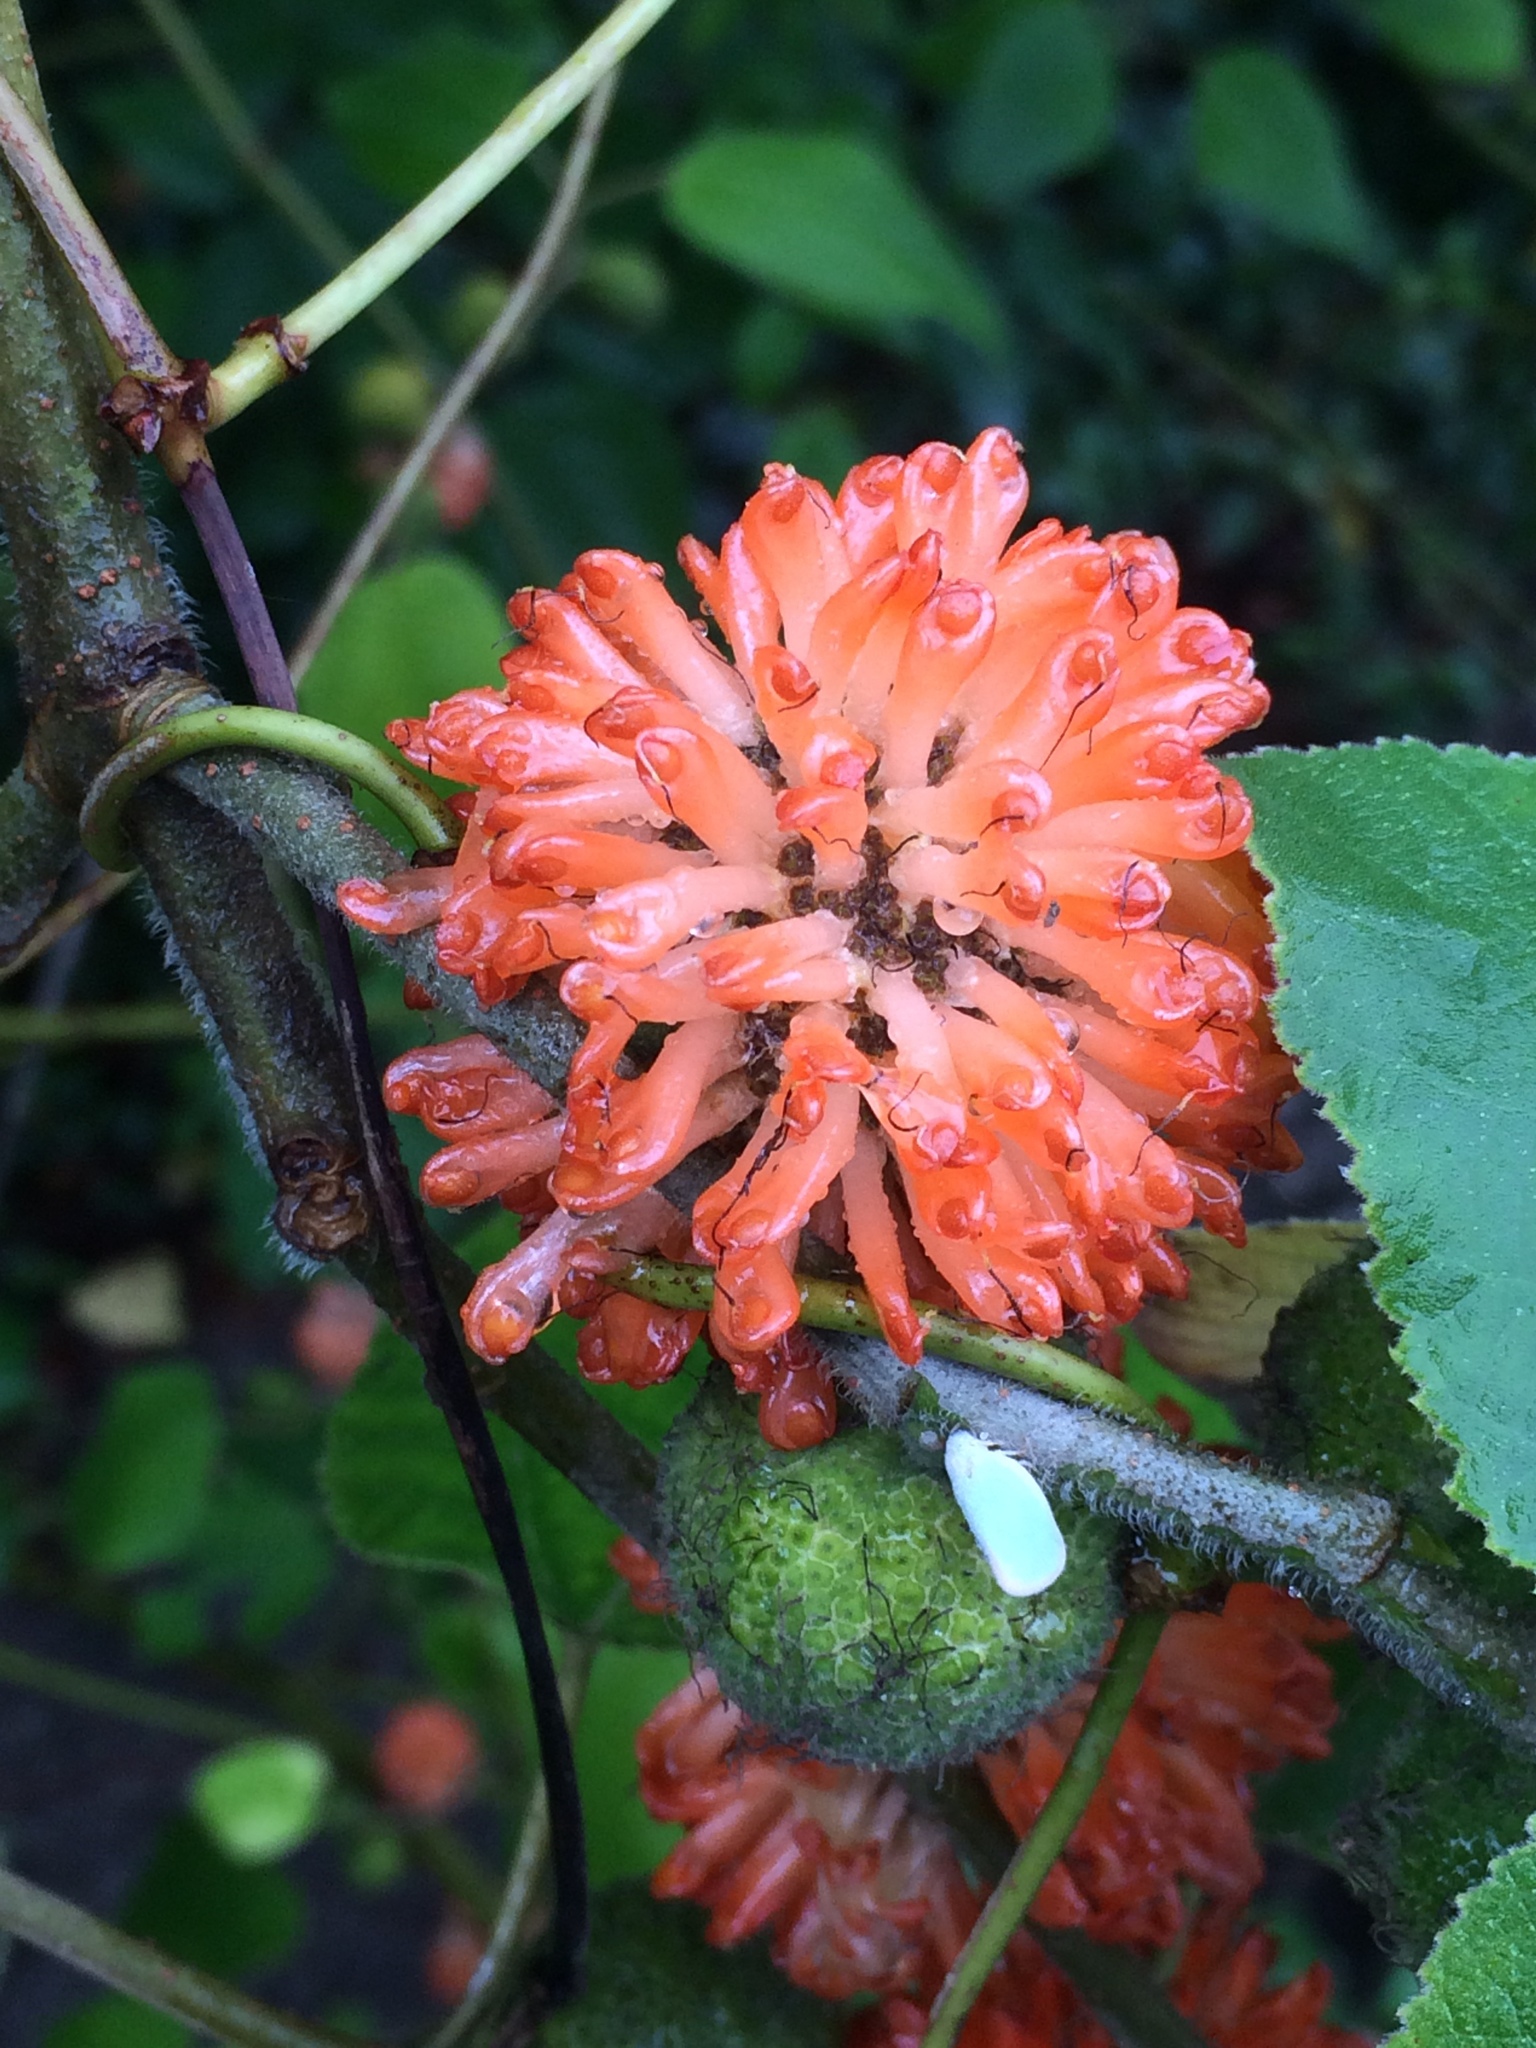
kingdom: Plantae
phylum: Tracheophyta
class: Magnoliopsida
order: Rosales
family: Moraceae
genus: Broussonetia
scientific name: Broussonetia papyrifera
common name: Paper mulberry
